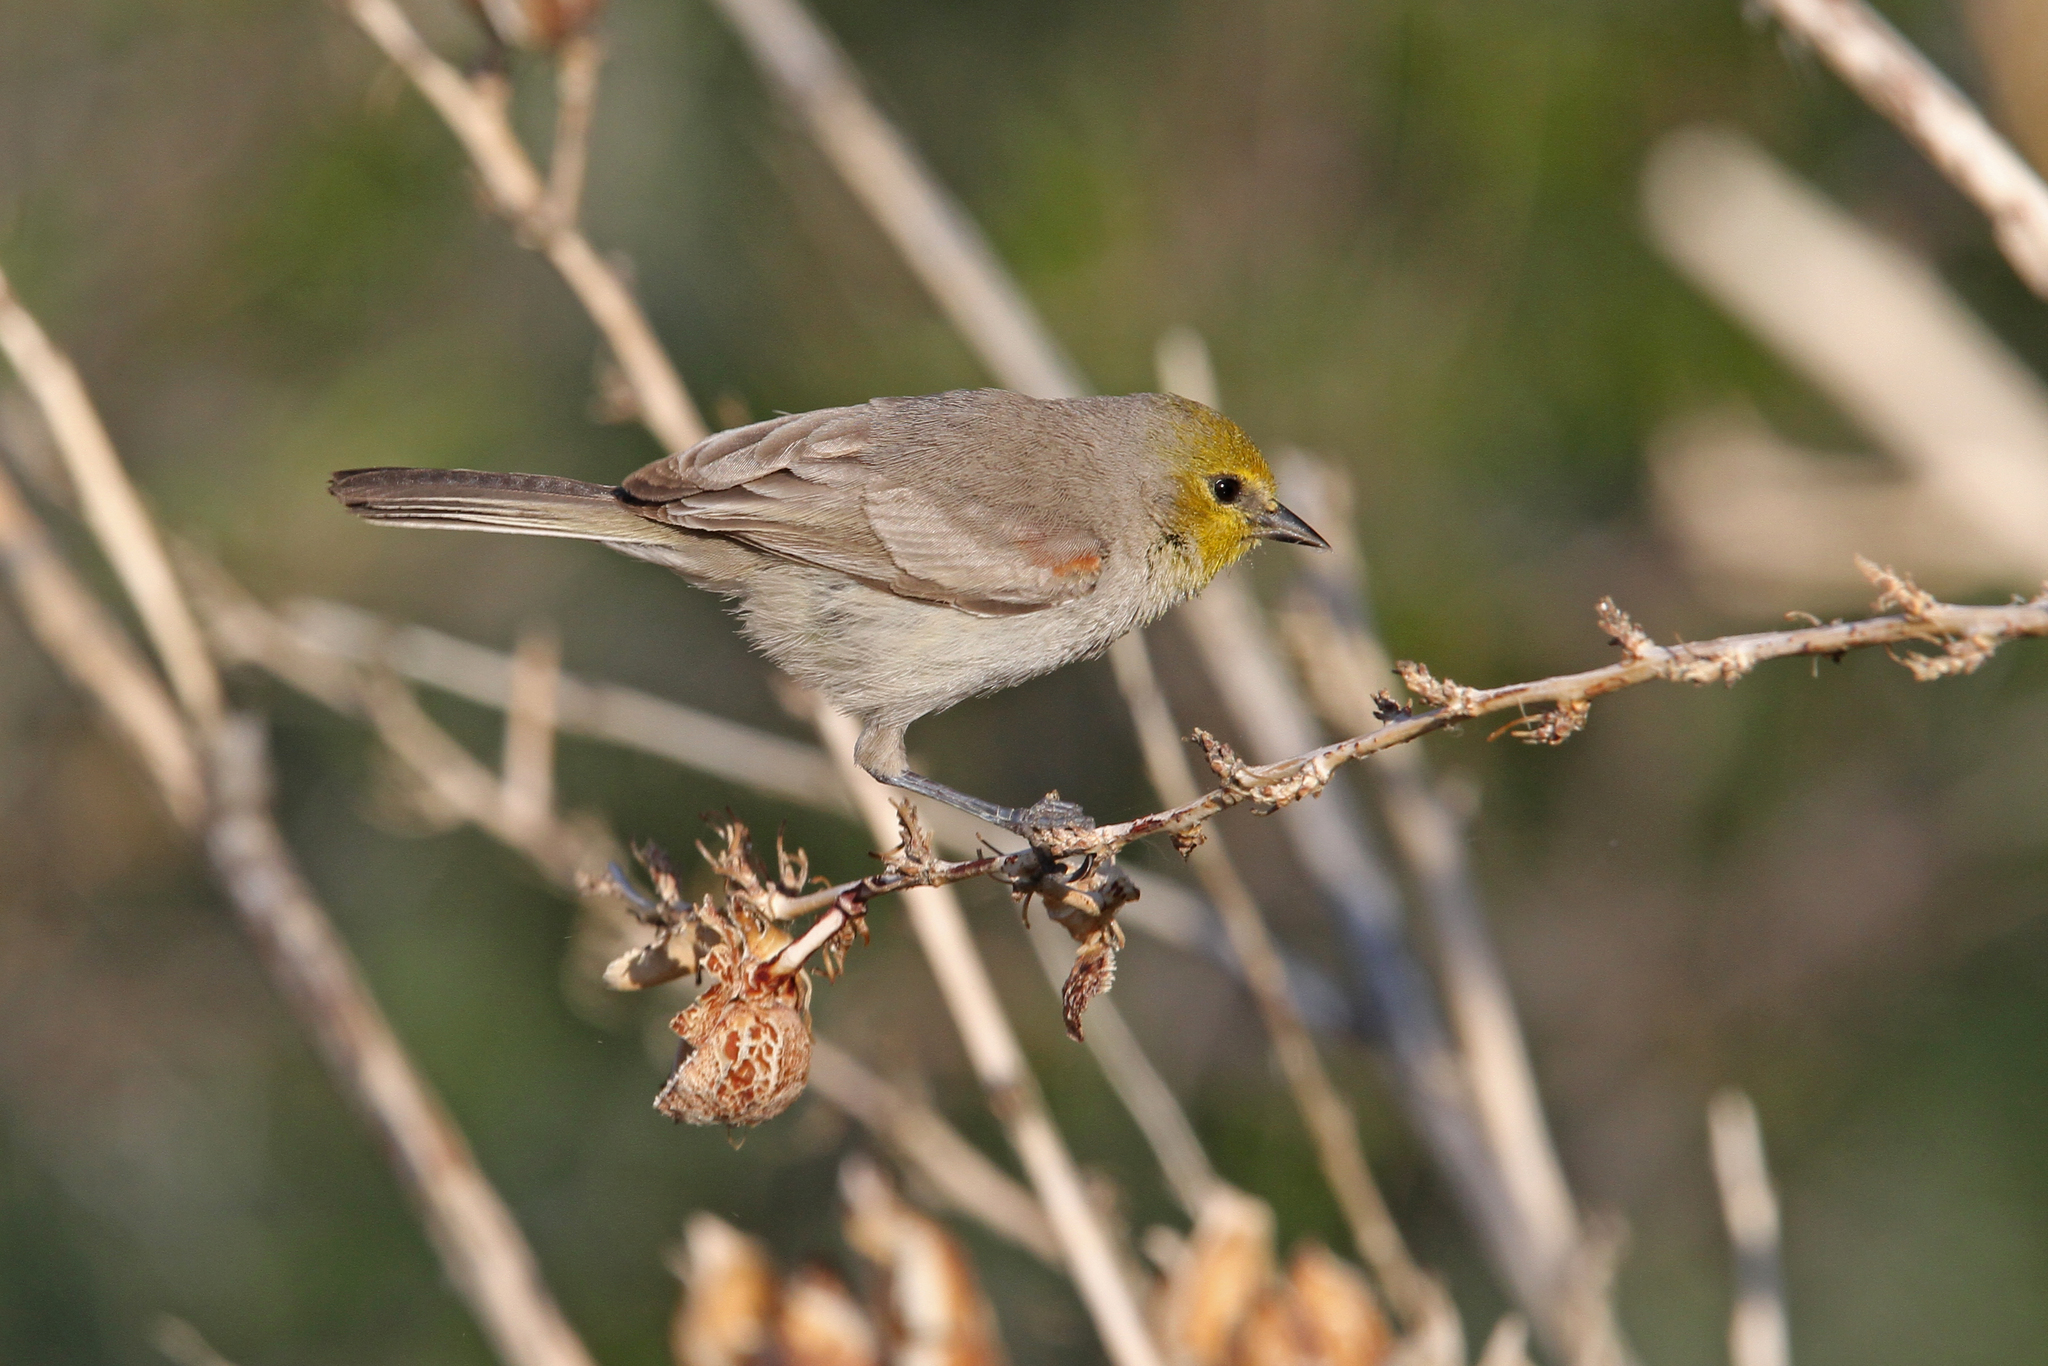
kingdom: Animalia
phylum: Chordata
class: Aves
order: Passeriformes
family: Remizidae
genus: Auriparus
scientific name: Auriparus flaviceps
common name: Verdin
